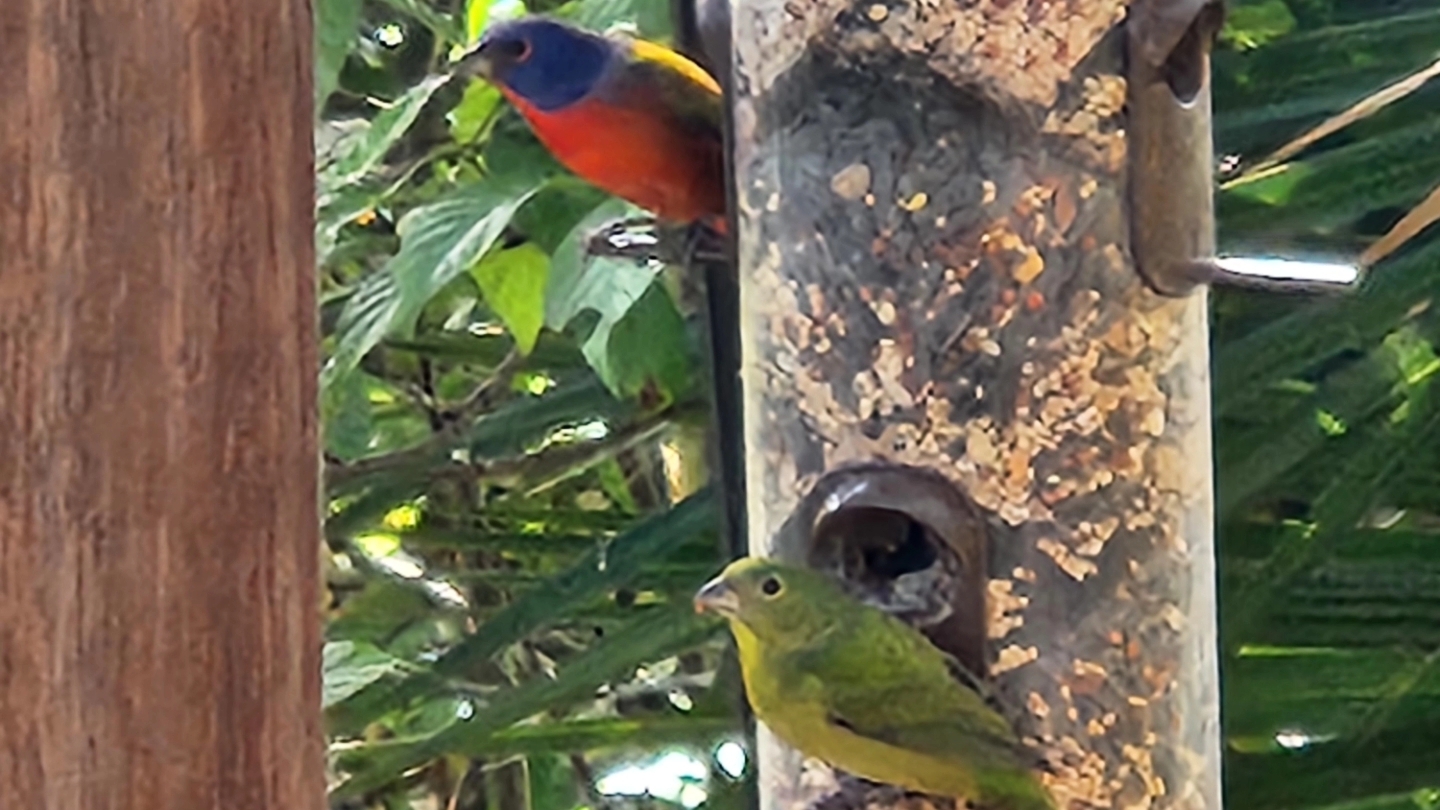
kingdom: Animalia
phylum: Chordata
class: Aves
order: Passeriformes
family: Cardinalidae
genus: Passerina
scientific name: Passerina ciris
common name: Painted bunting
